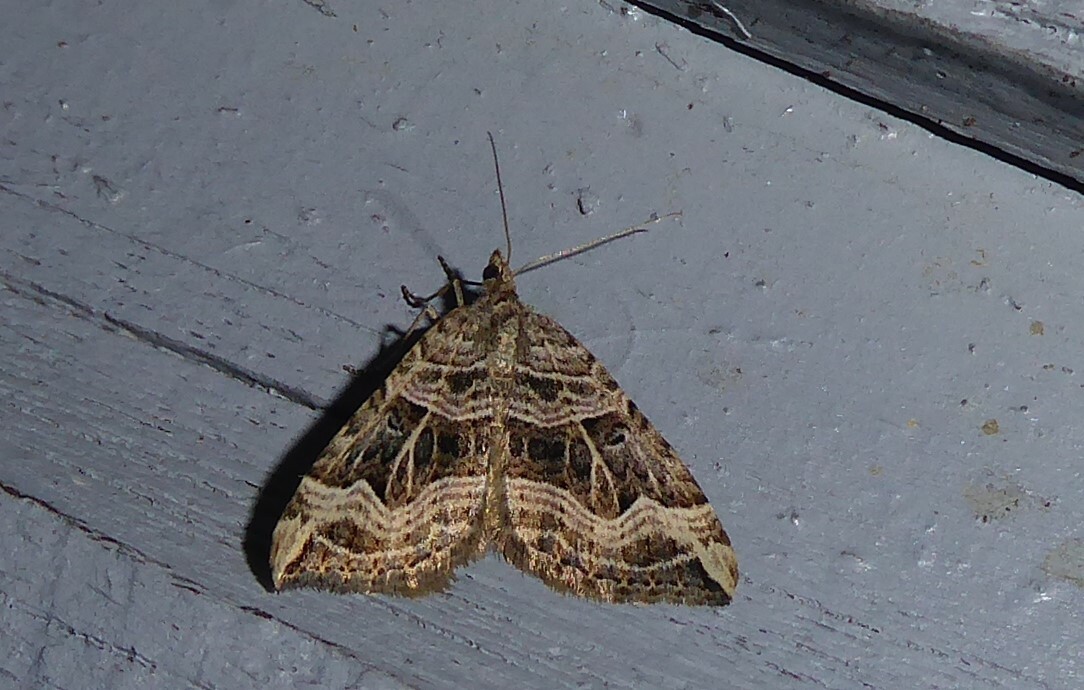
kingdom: Animalia
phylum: Arthropoda
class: Insecta
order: Lepidoptera
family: Geometridae
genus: Xanthorhoe
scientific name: Xanthorhoe semifissata
